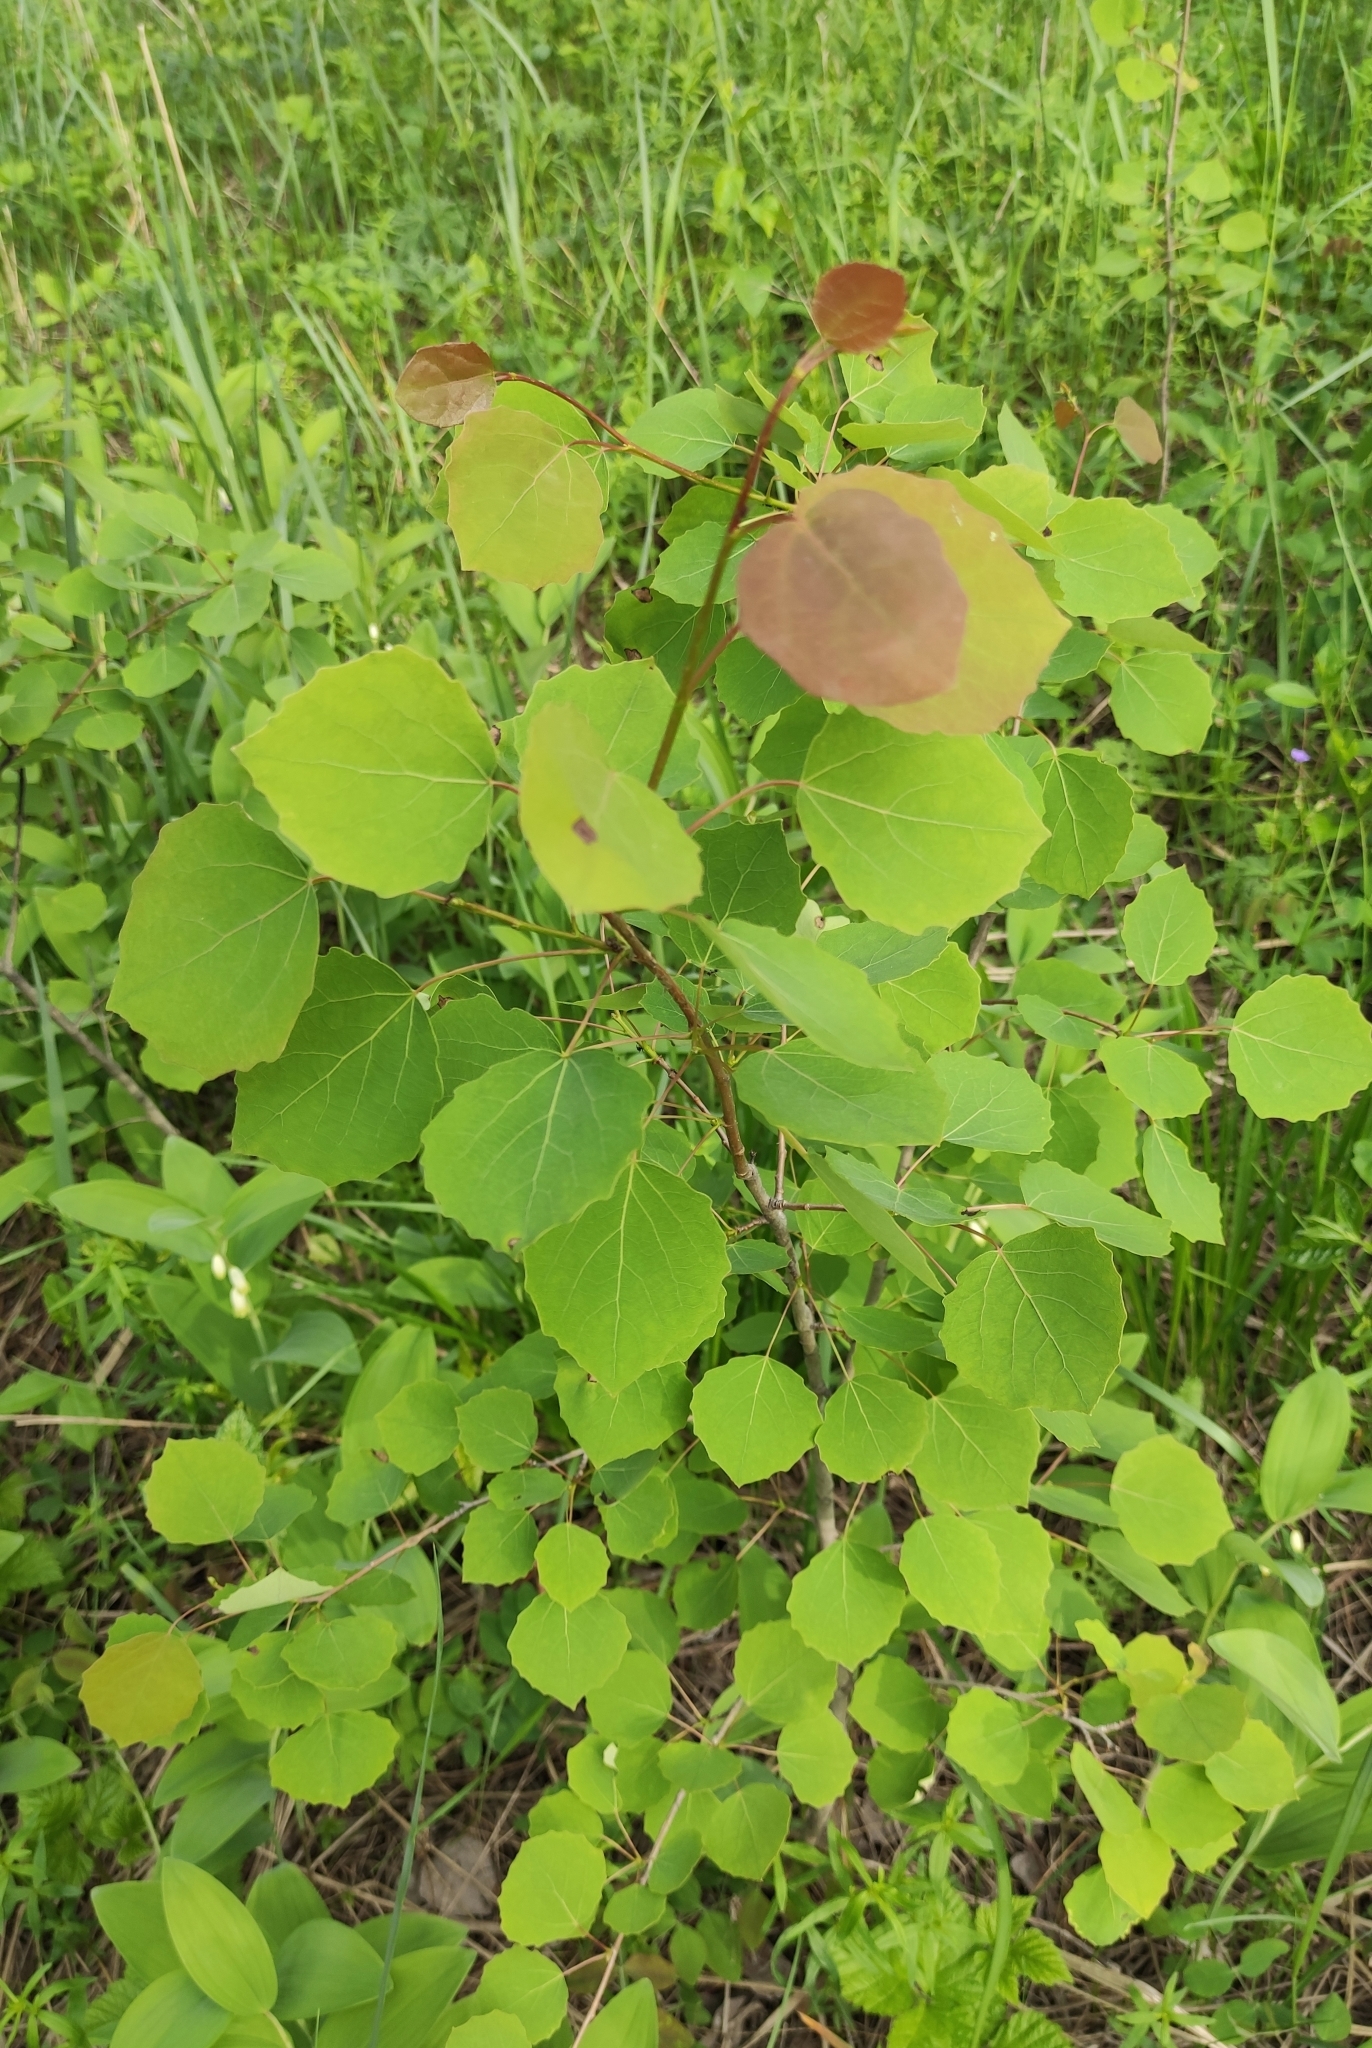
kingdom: Plantae
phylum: Tracheophyta
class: Magnoliopsida
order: Malpighiales
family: Salicaceae
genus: Populus
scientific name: Populus tremula
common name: European aspen
